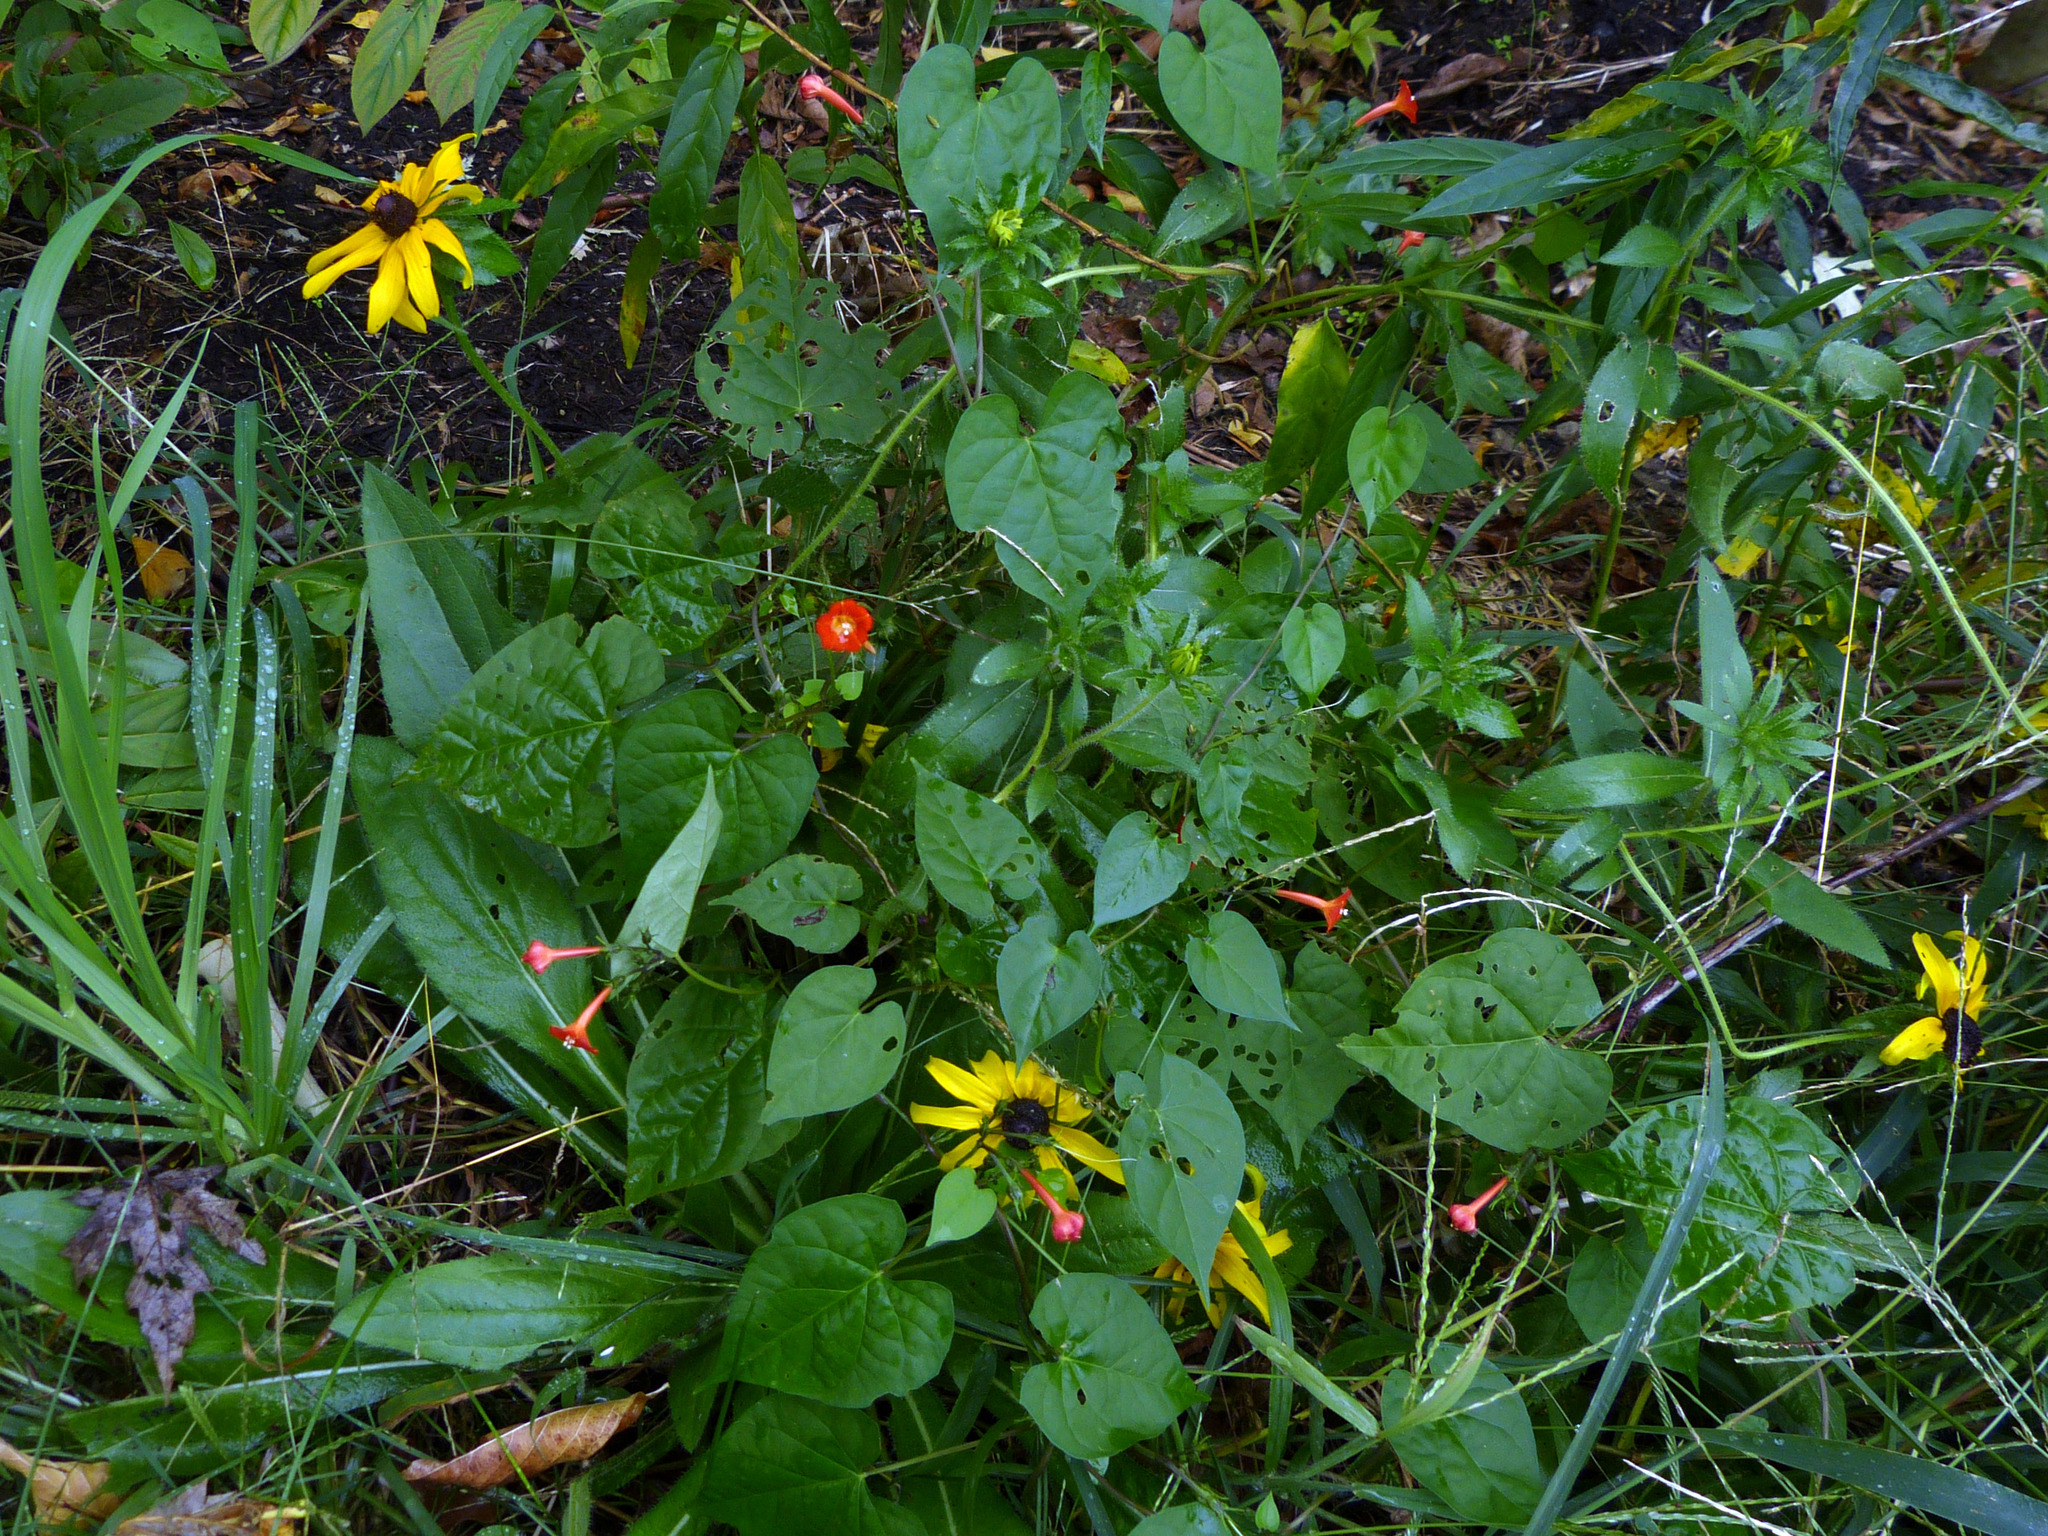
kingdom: Plantae
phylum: Tracheophyta
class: Magnoliopsida
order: Solanales
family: Convolvulaceae
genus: Ipomoea
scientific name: Ipomoea coccinea
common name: Red morning-glory
